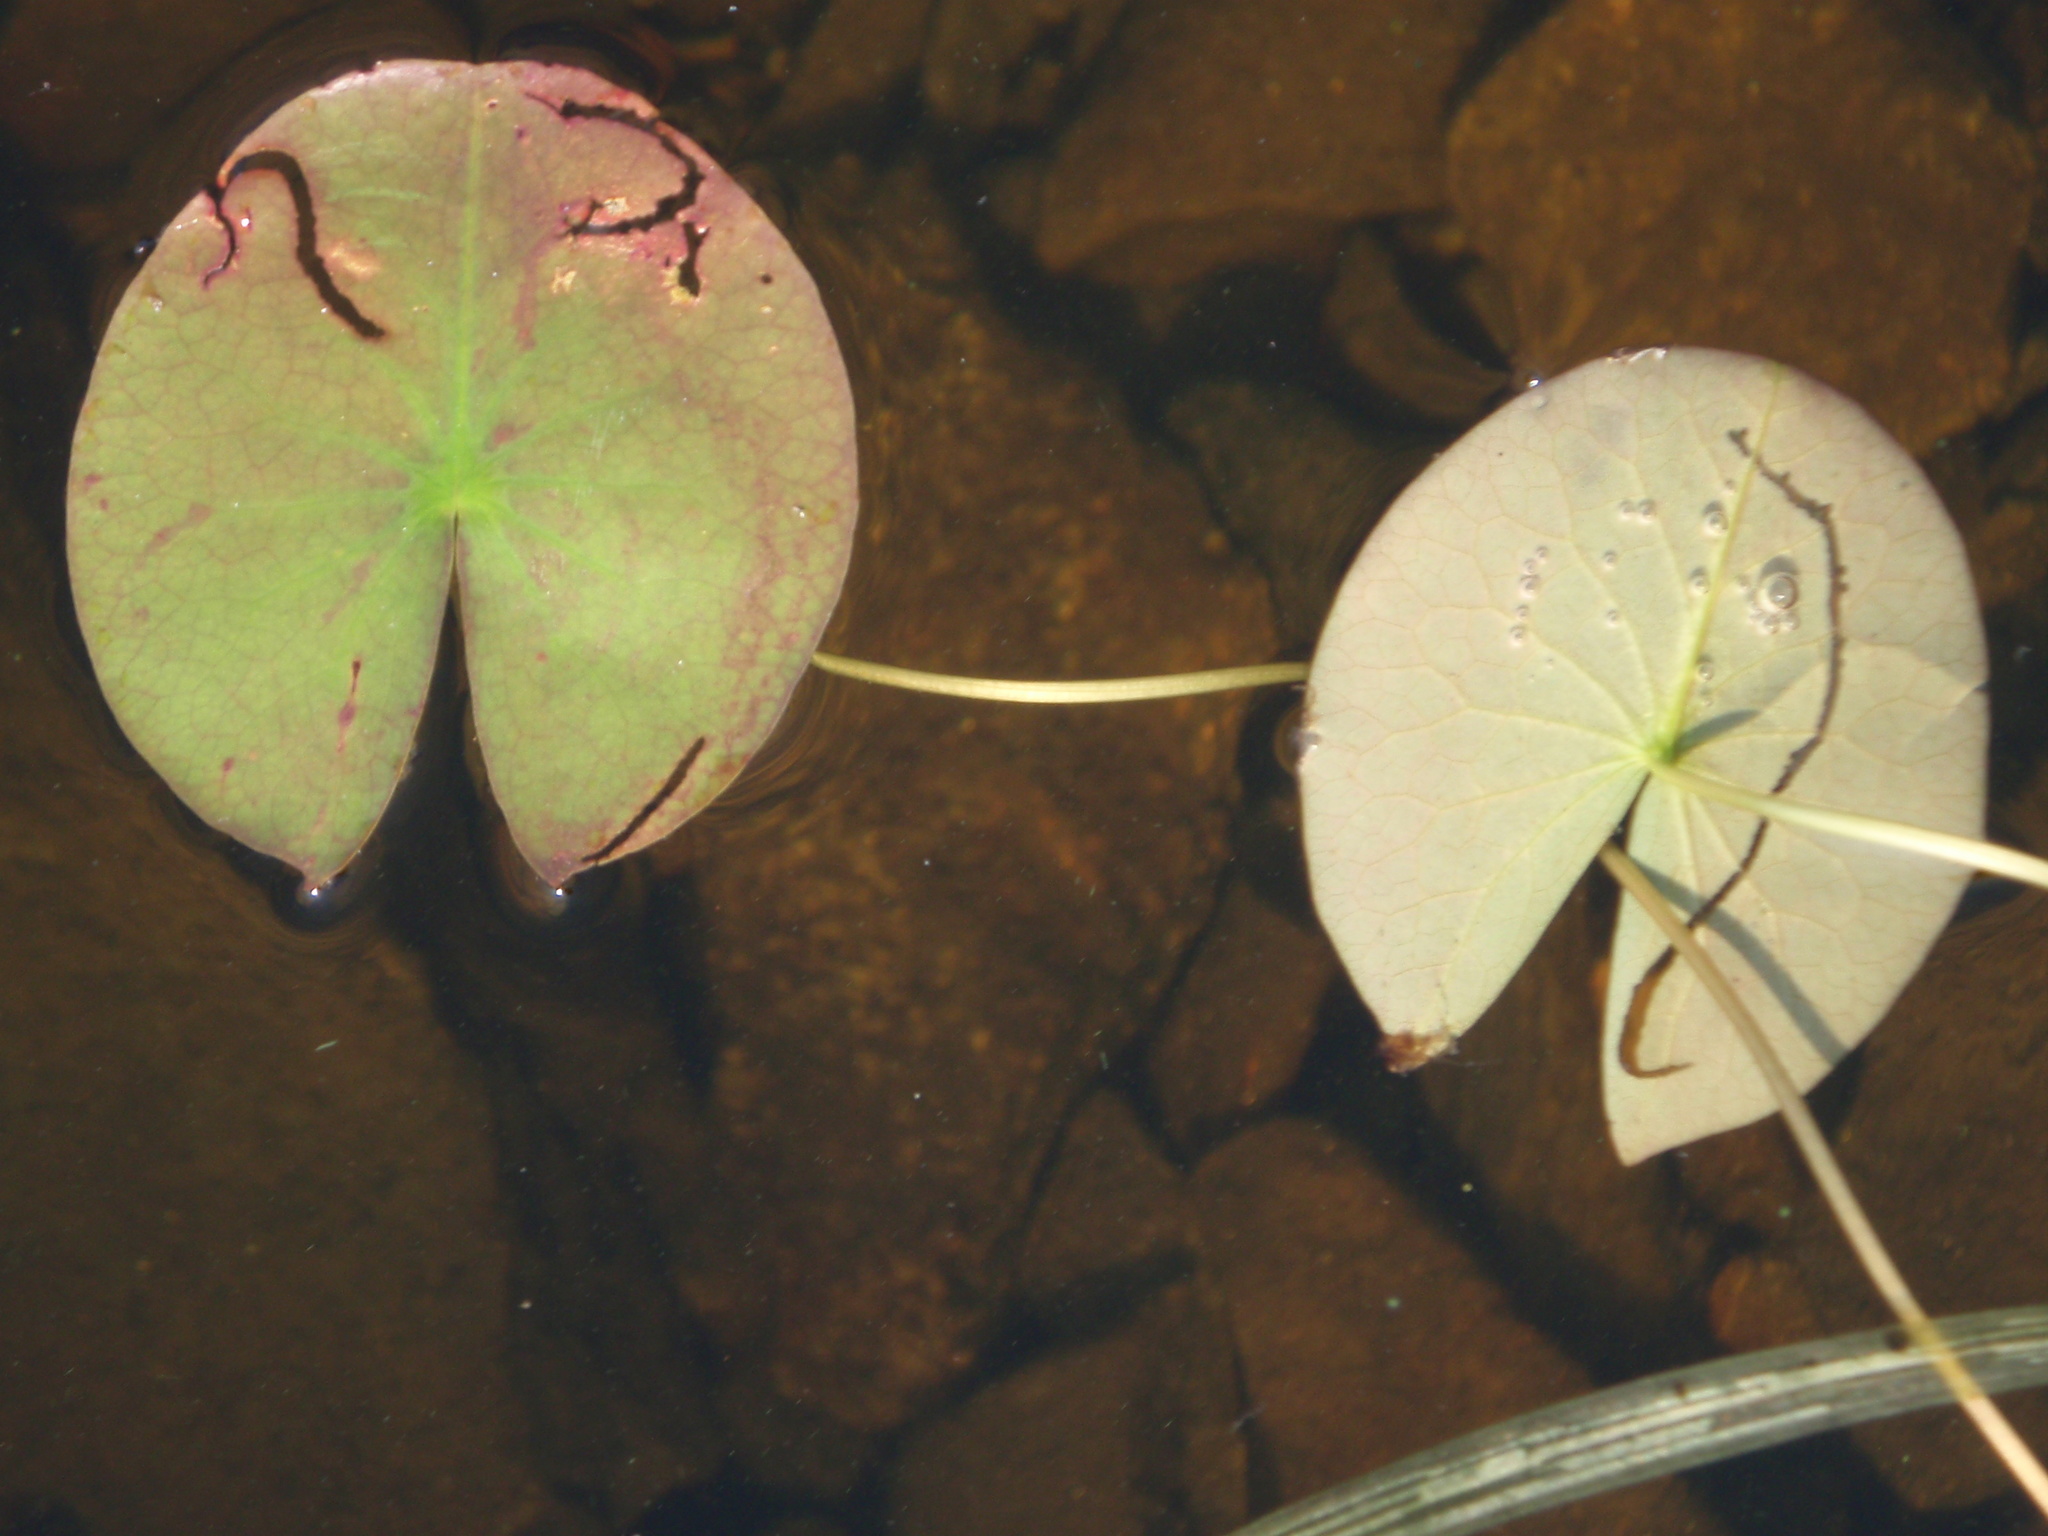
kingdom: Plantae
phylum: Tracheophyta
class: Magnoliopsida
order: Nymphaeales
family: Nymphaeaceae
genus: Nymphaea
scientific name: Nymphaea odorata
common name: Fragrant water-lily
